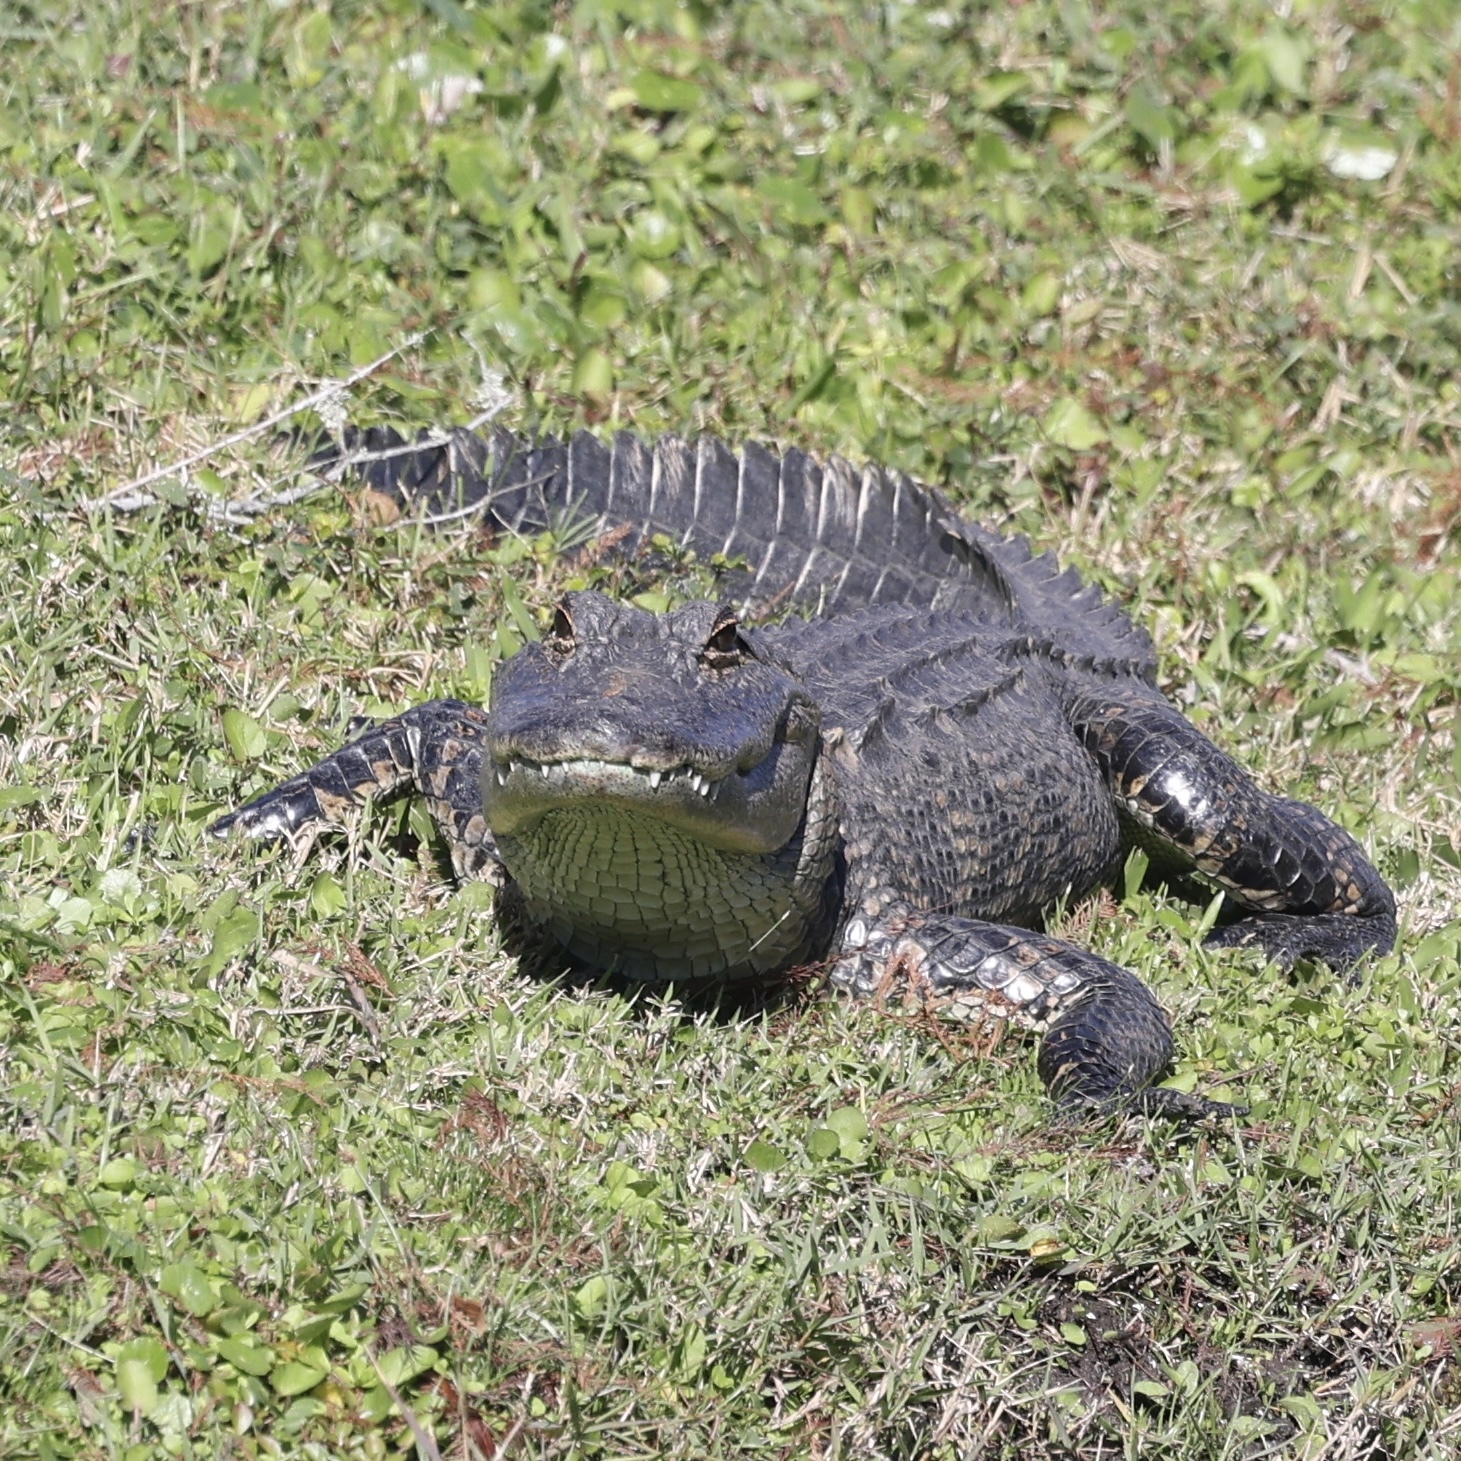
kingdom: Animalia
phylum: Chordata
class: Crocodylia
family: Alligatoridae
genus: Alligator
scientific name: Alligator mississippiensis
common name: American alligator
